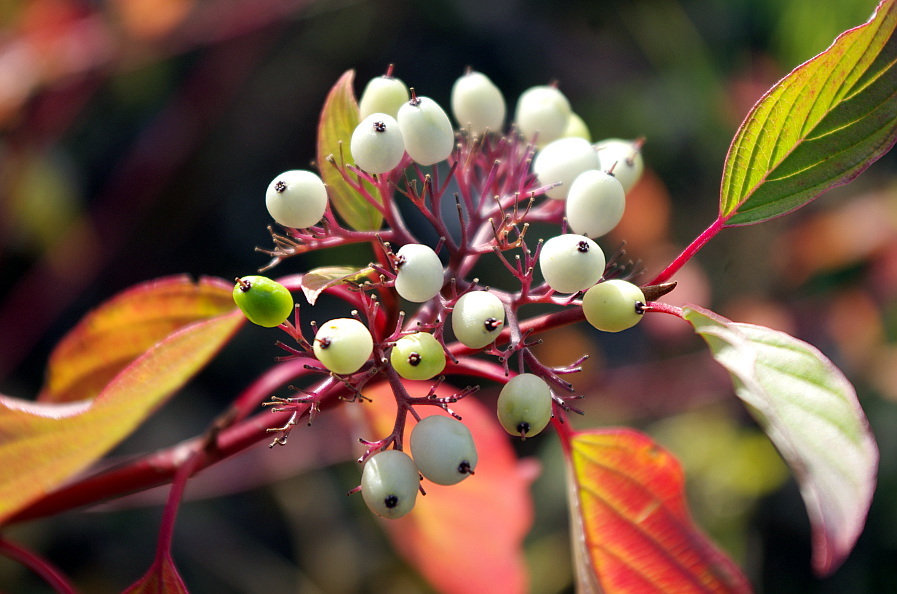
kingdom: Plantae
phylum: Tracheophyta
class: Magnoliopsida
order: Cornales
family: Cornaceae
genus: Cornus
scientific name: Cornus sericea
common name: Red-osier dogwood
